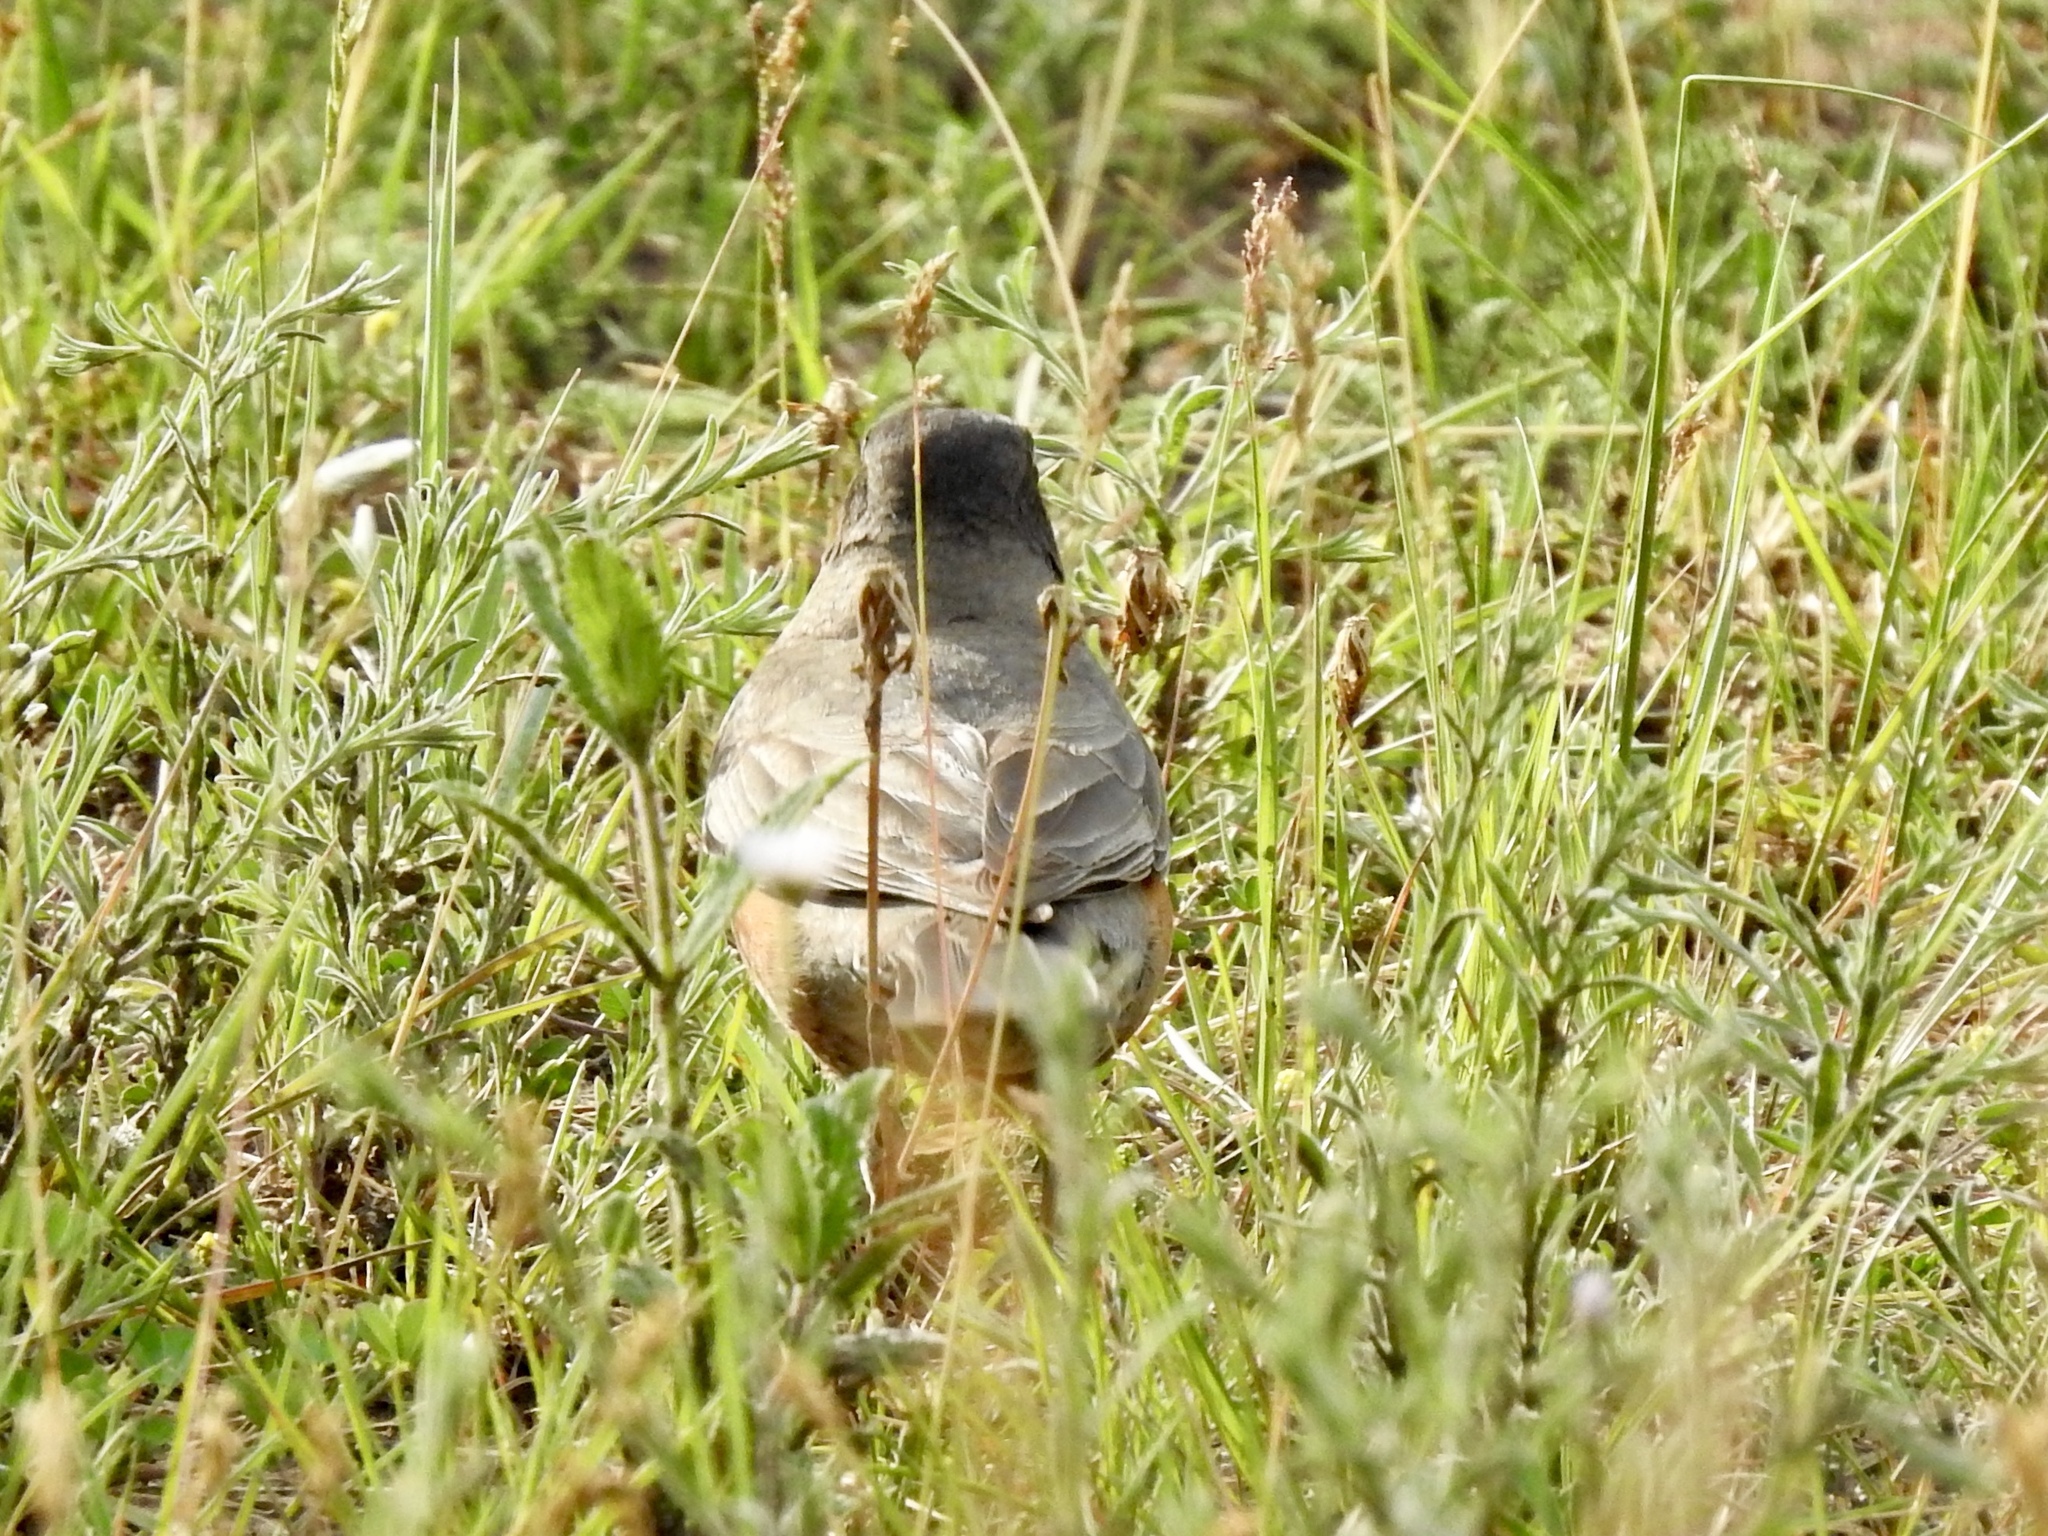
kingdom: Animalia
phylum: Chordata
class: Aves
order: Passeriformes
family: Turdidae
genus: Turdus
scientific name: Turdus migratorius
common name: American robin
